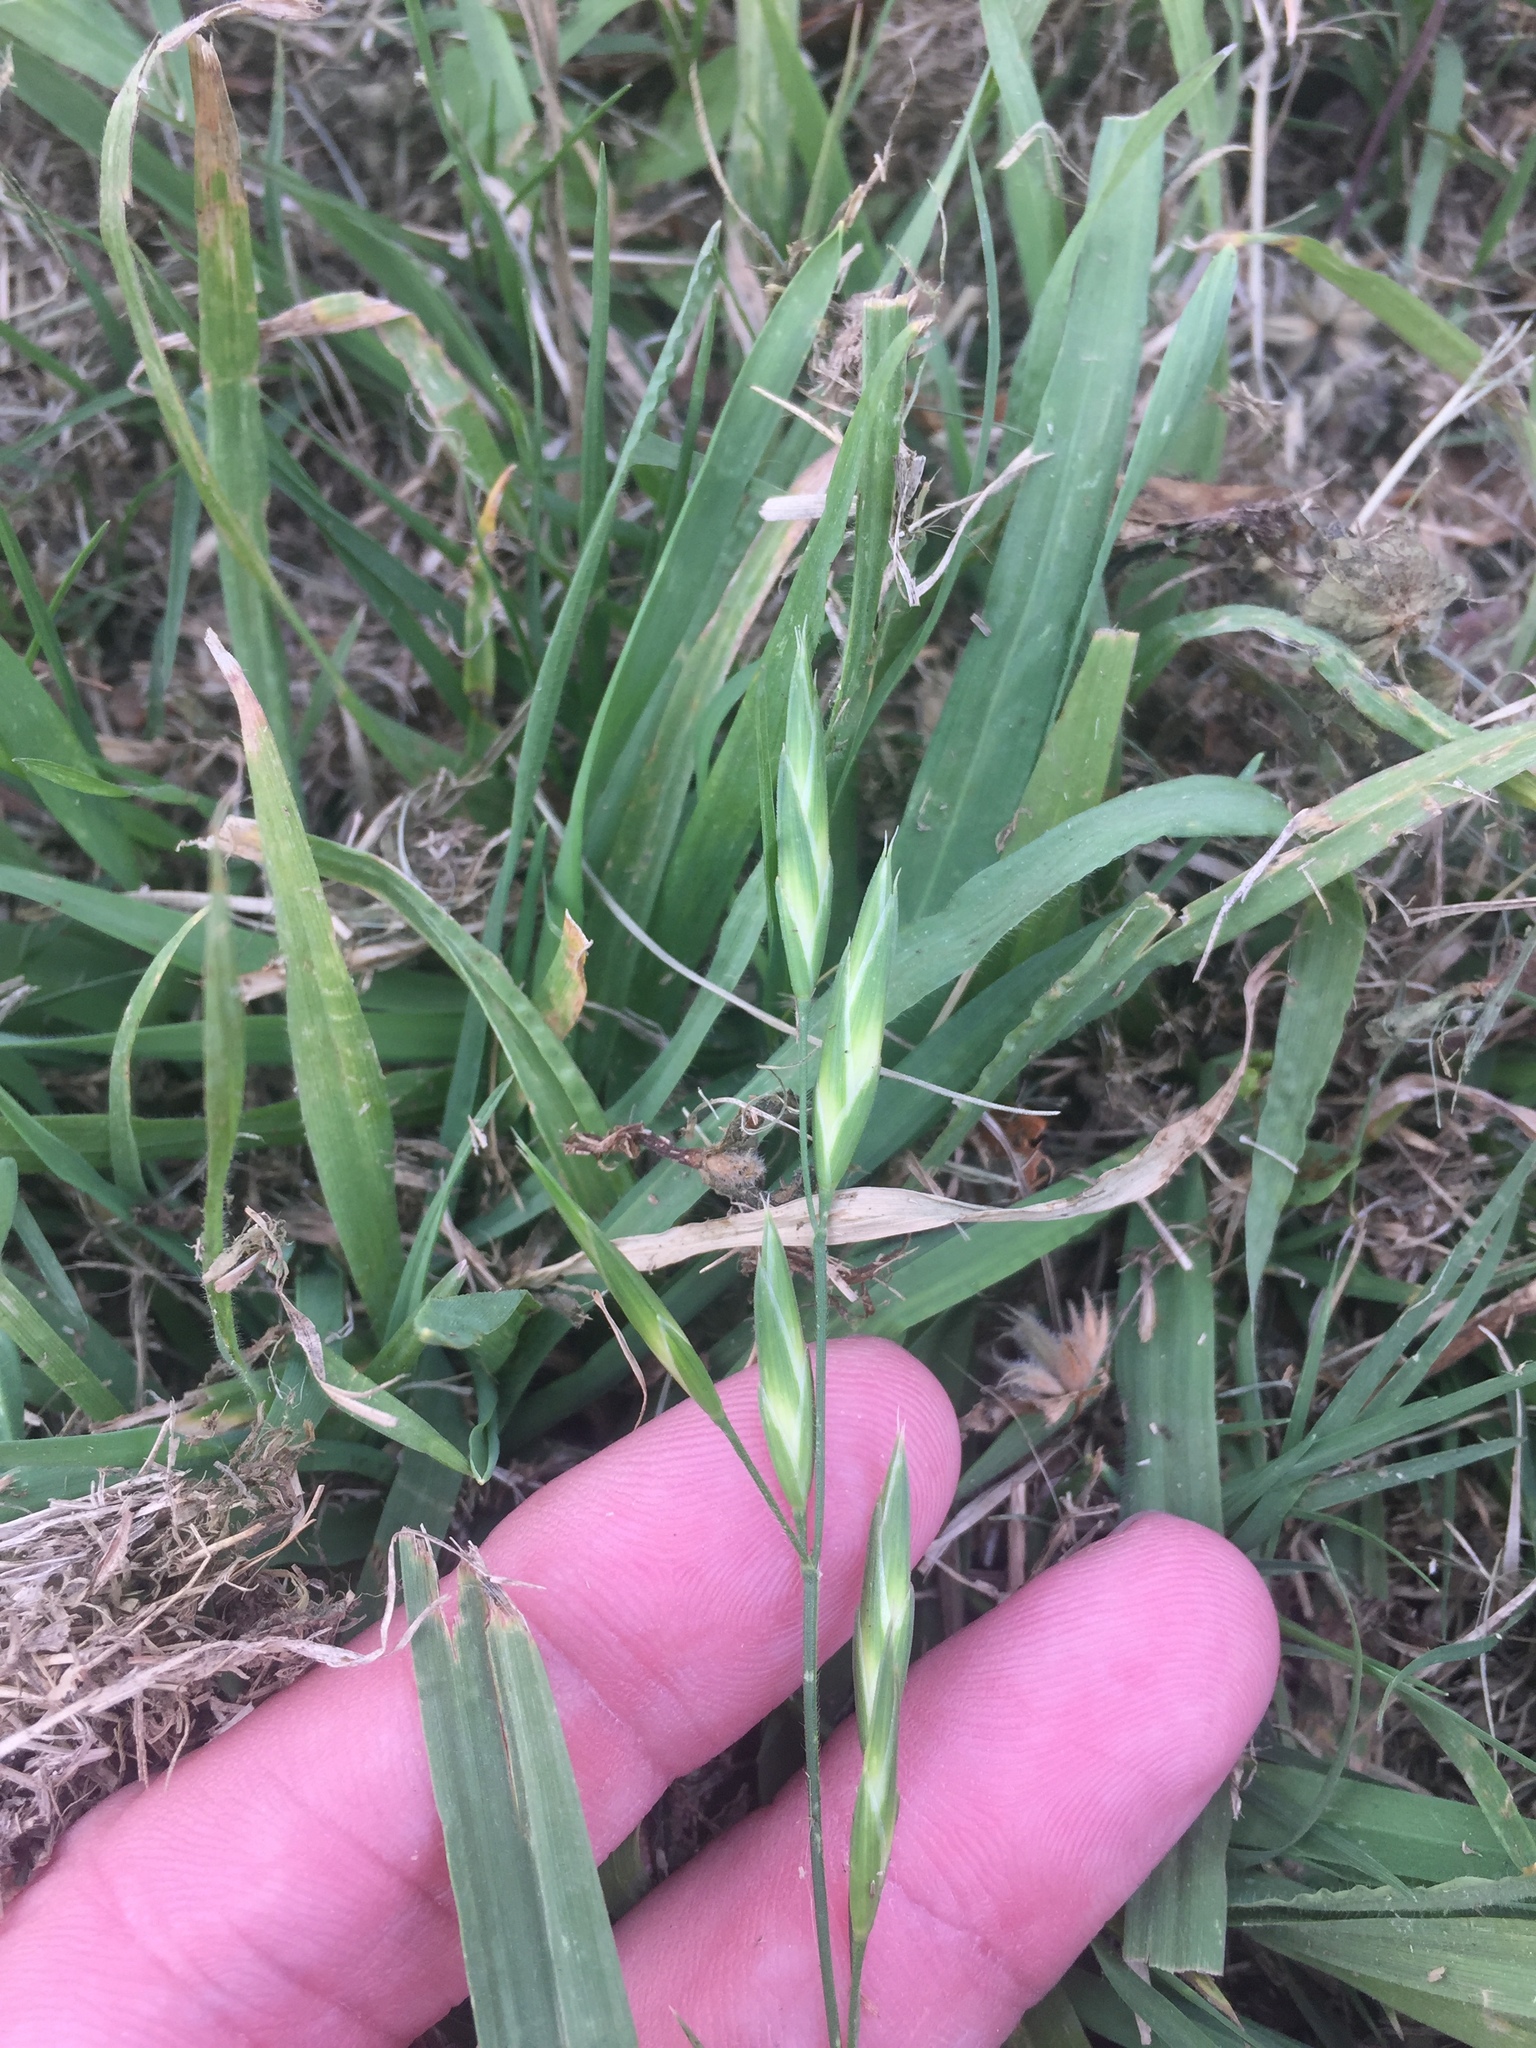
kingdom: Plantae
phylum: Tracheophyta
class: Liliopsida
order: Poales
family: Poaceae
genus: Bromus
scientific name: Bromus catharticus
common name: Rescuegrass
